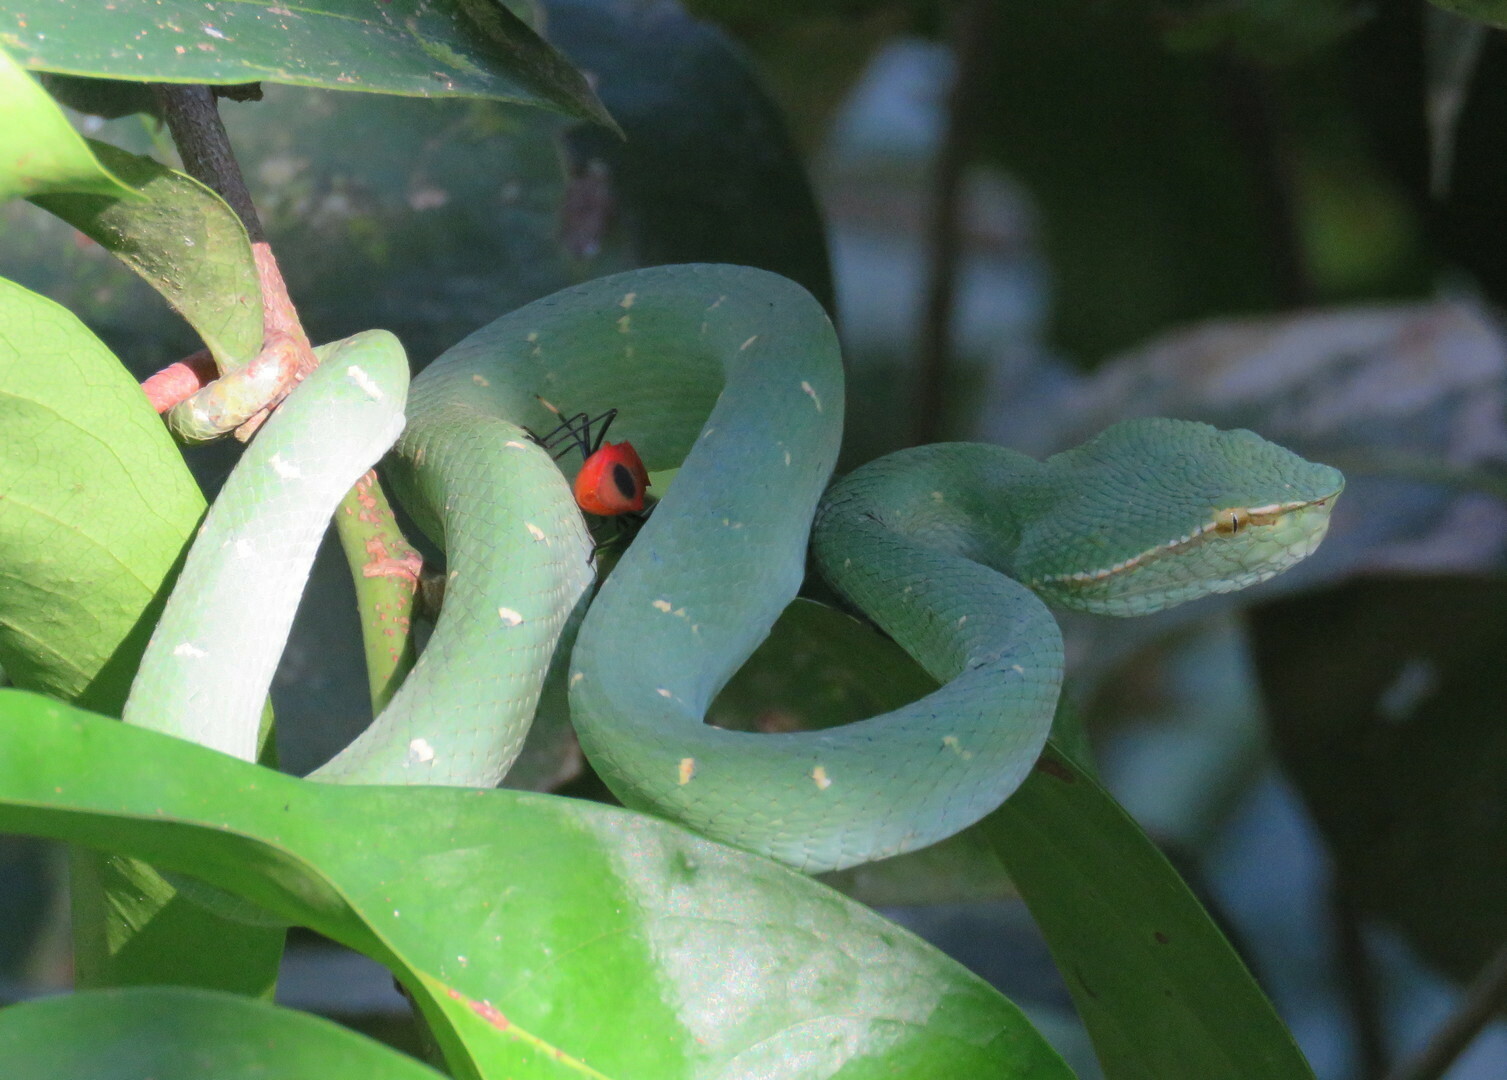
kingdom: Animalia
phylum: Chordata
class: Squamata
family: Viperidae
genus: Tropidolaemus
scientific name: Tropidolaemus subannulatus
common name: North philippine temple pitviper
